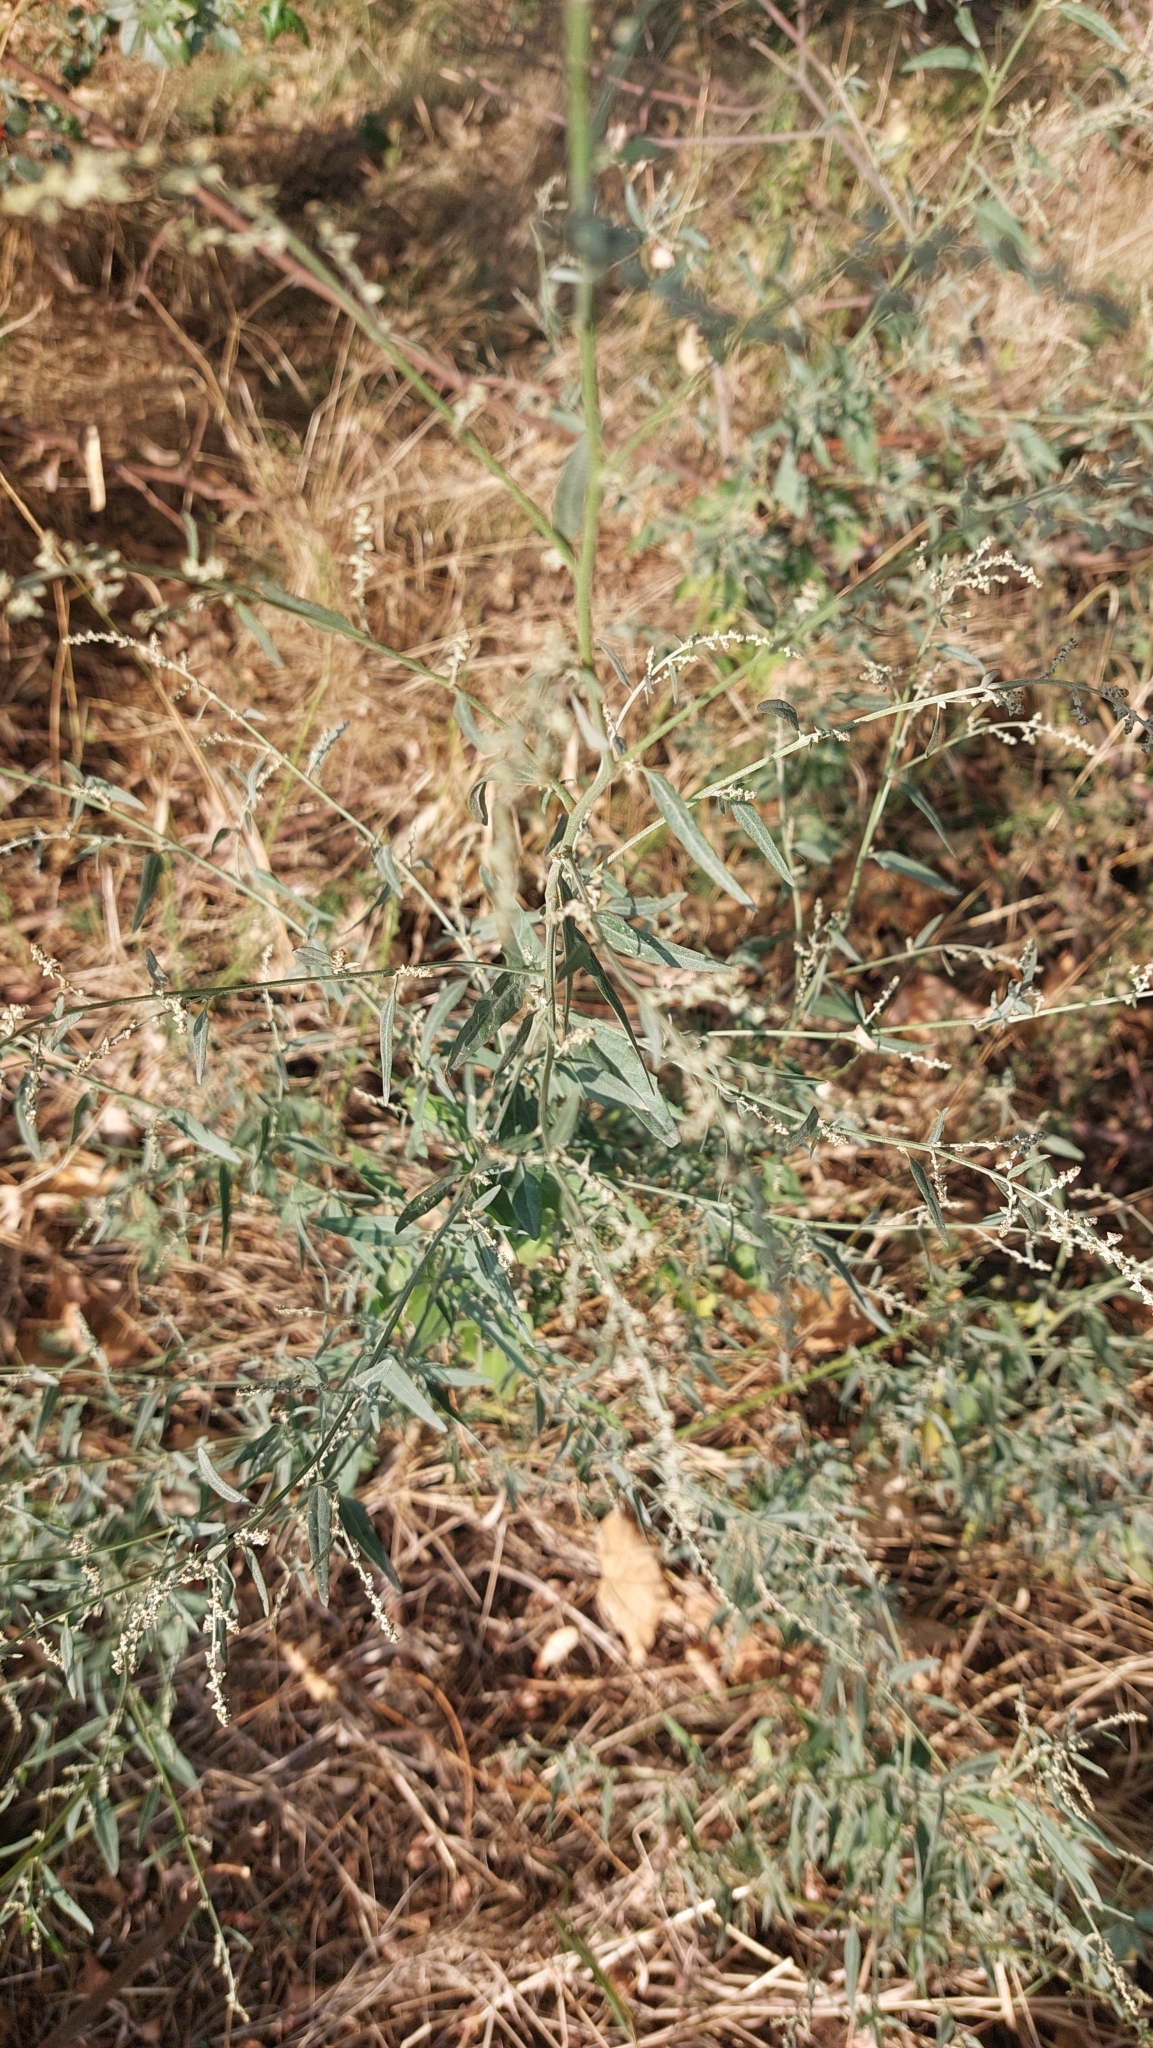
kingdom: Plantae
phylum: Tracheophyta
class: Magnoliopsida
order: Caryophyllales
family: Amaranthaceae
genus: Atriplex
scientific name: Atriplex oblongifolia
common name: Oblongleaf orache
